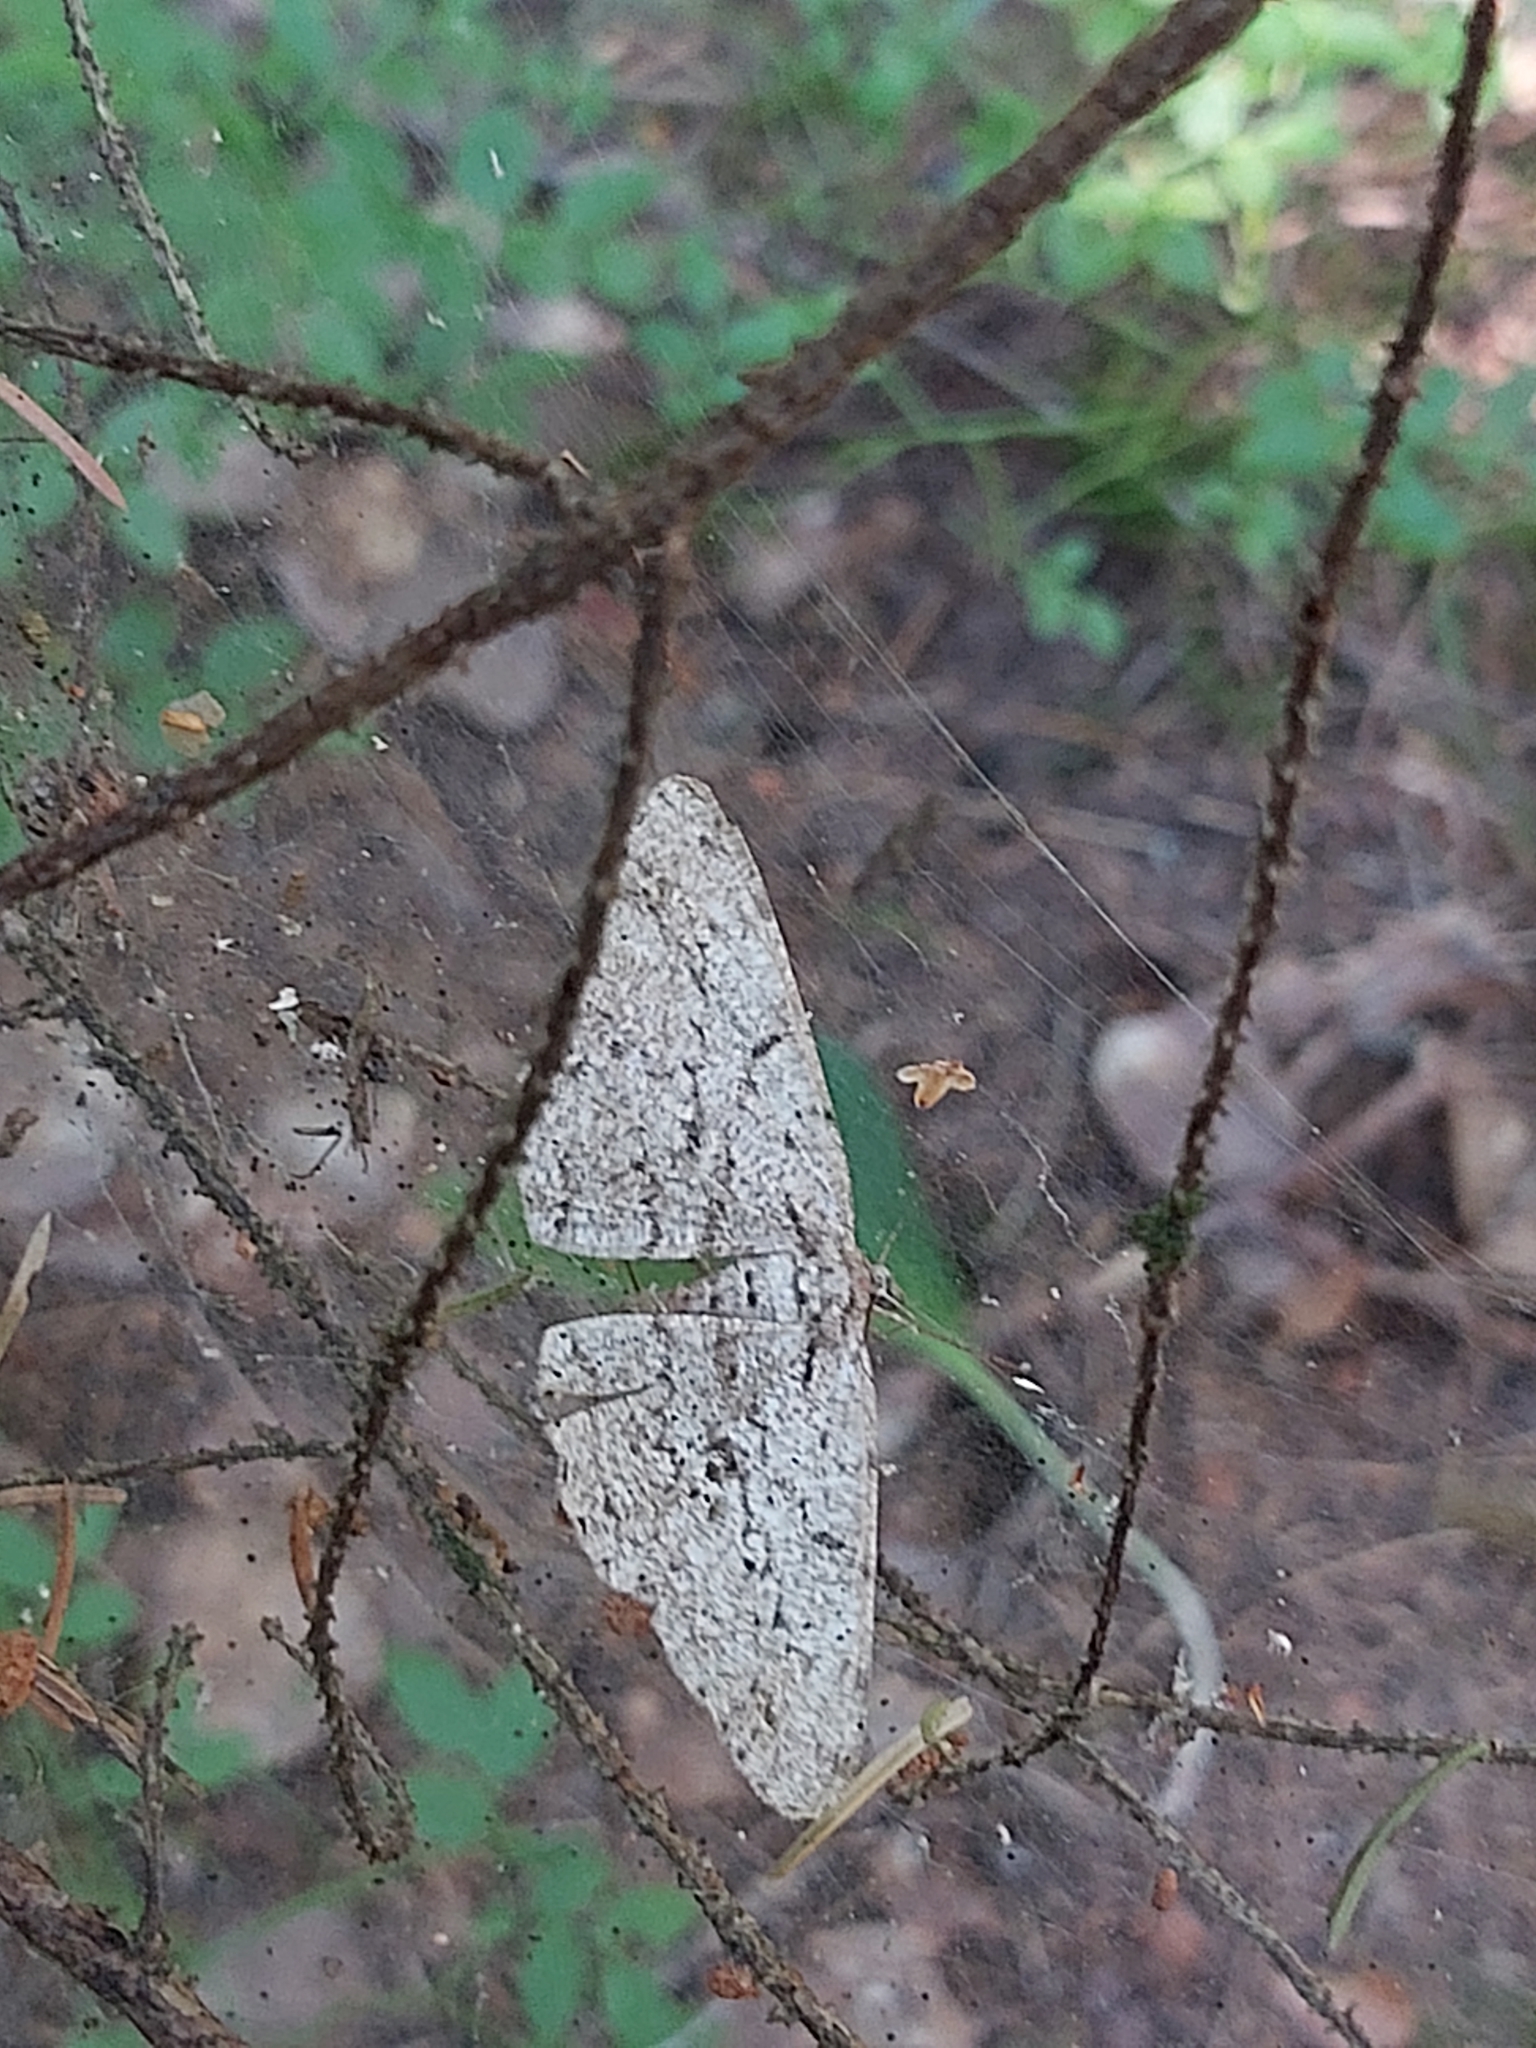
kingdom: Animalia
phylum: Arthropoda
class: Insecta
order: Lepidoptera
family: Geometridae
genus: Hypomecis
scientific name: Hypomecis roboraria
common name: Great oak beauty
